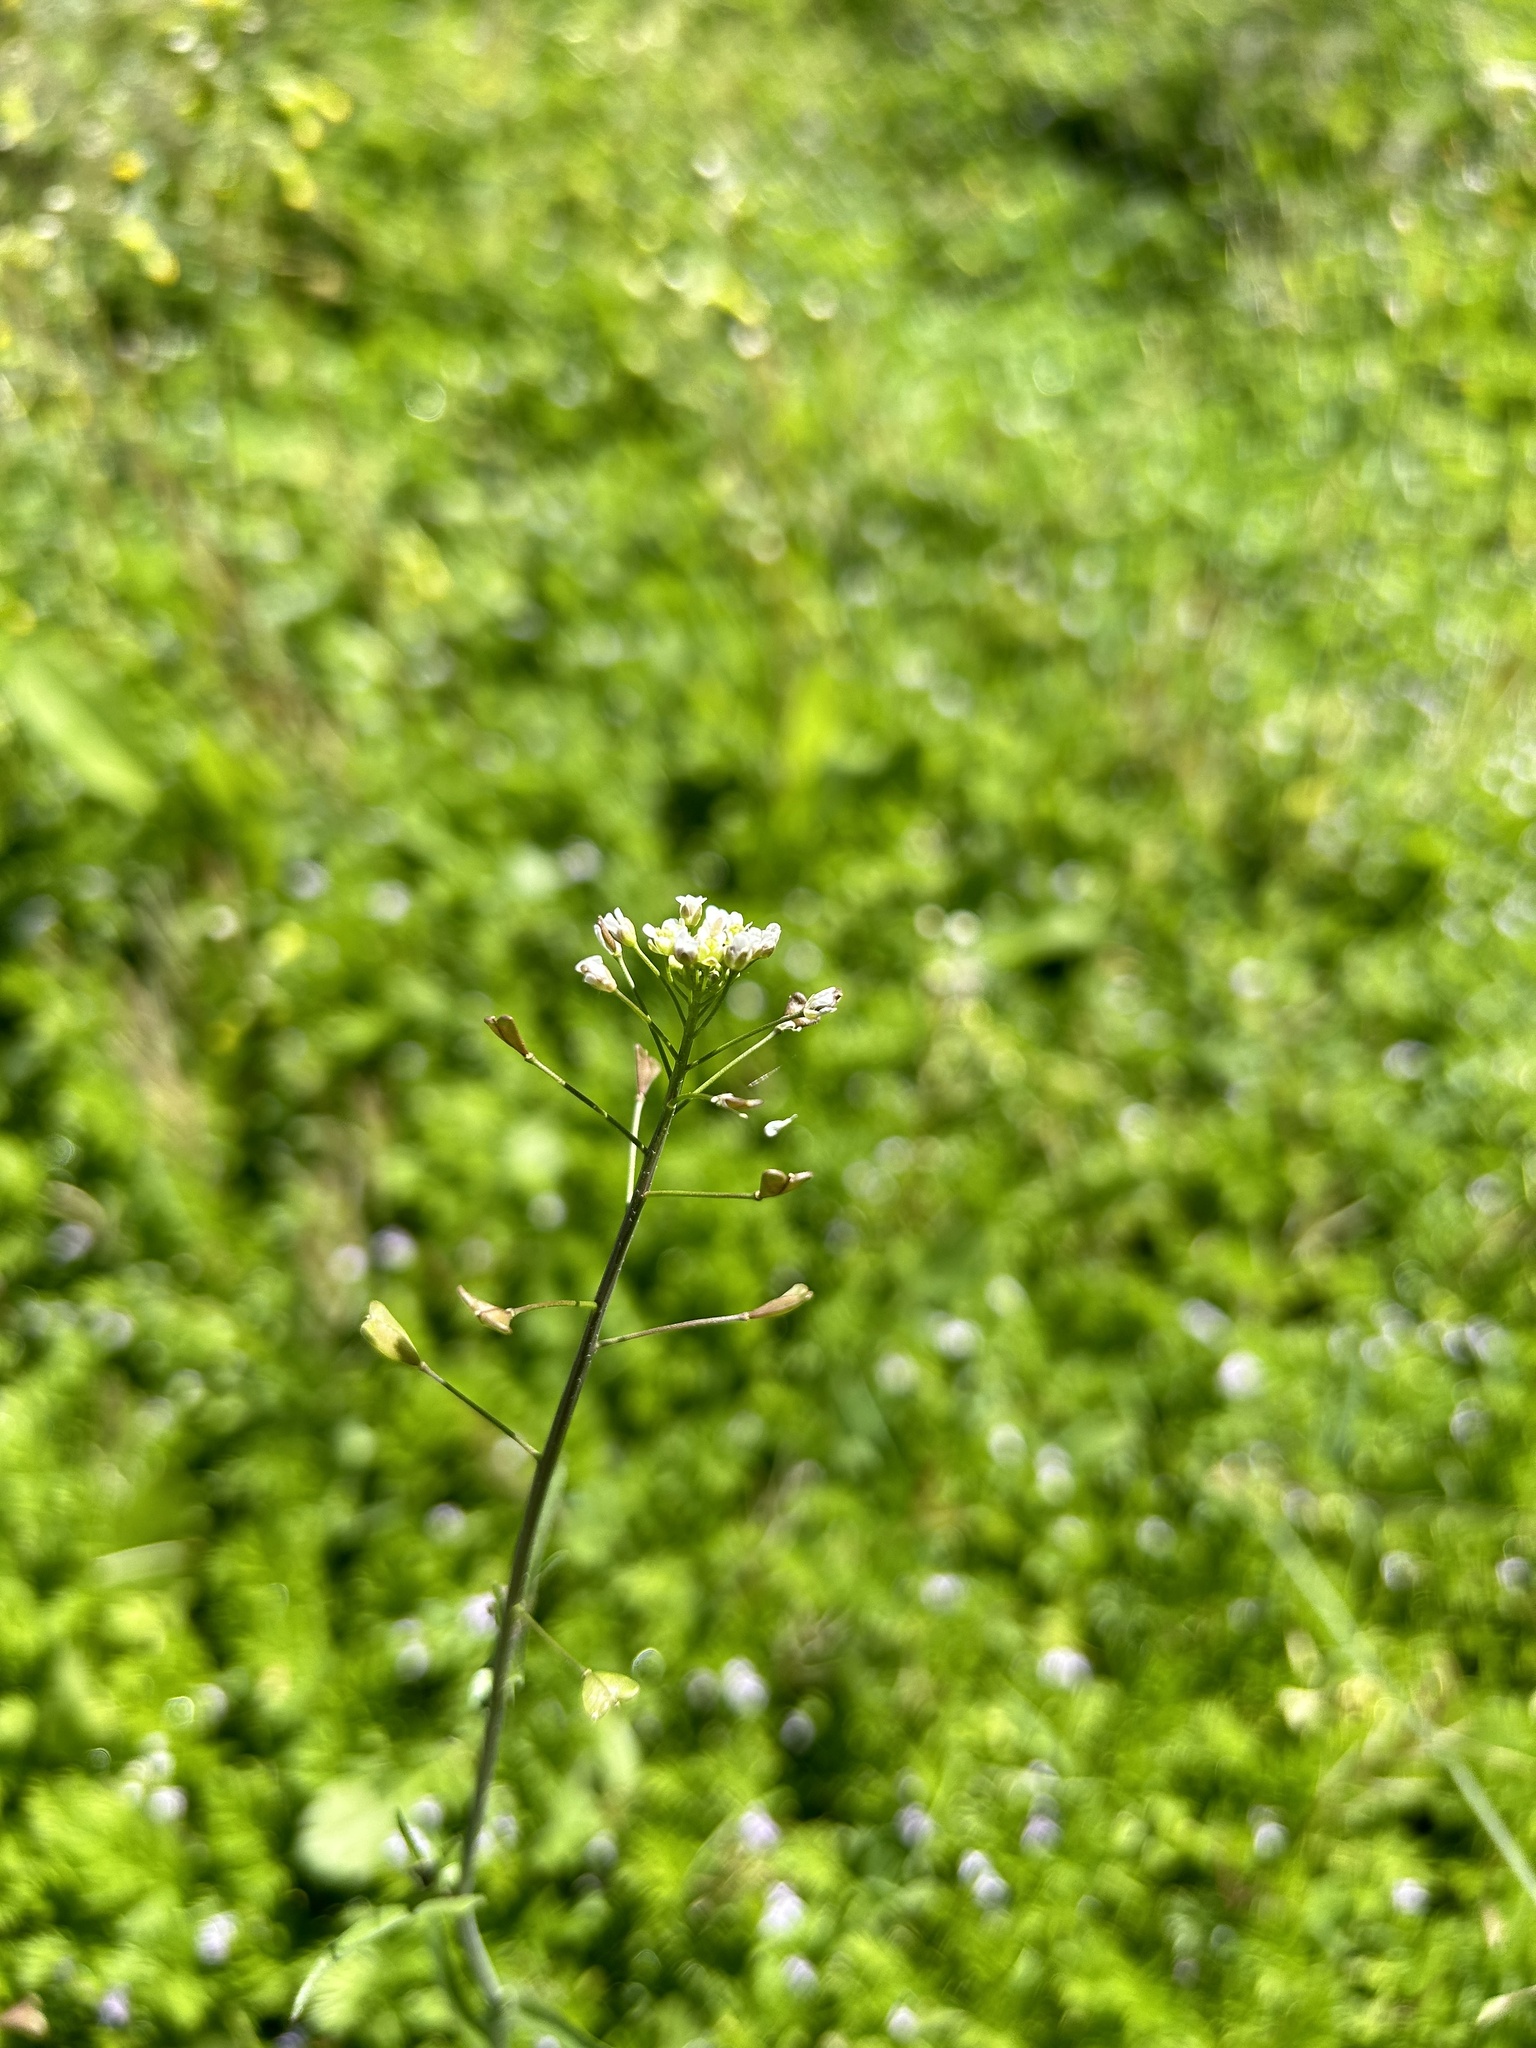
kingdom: Plantae
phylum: Tracheophyta
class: Magnoliopsida
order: Brassicales
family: Brassicaceae
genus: Capsella
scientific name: Capsella bursa-pastoris
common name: Shepherd's purse
